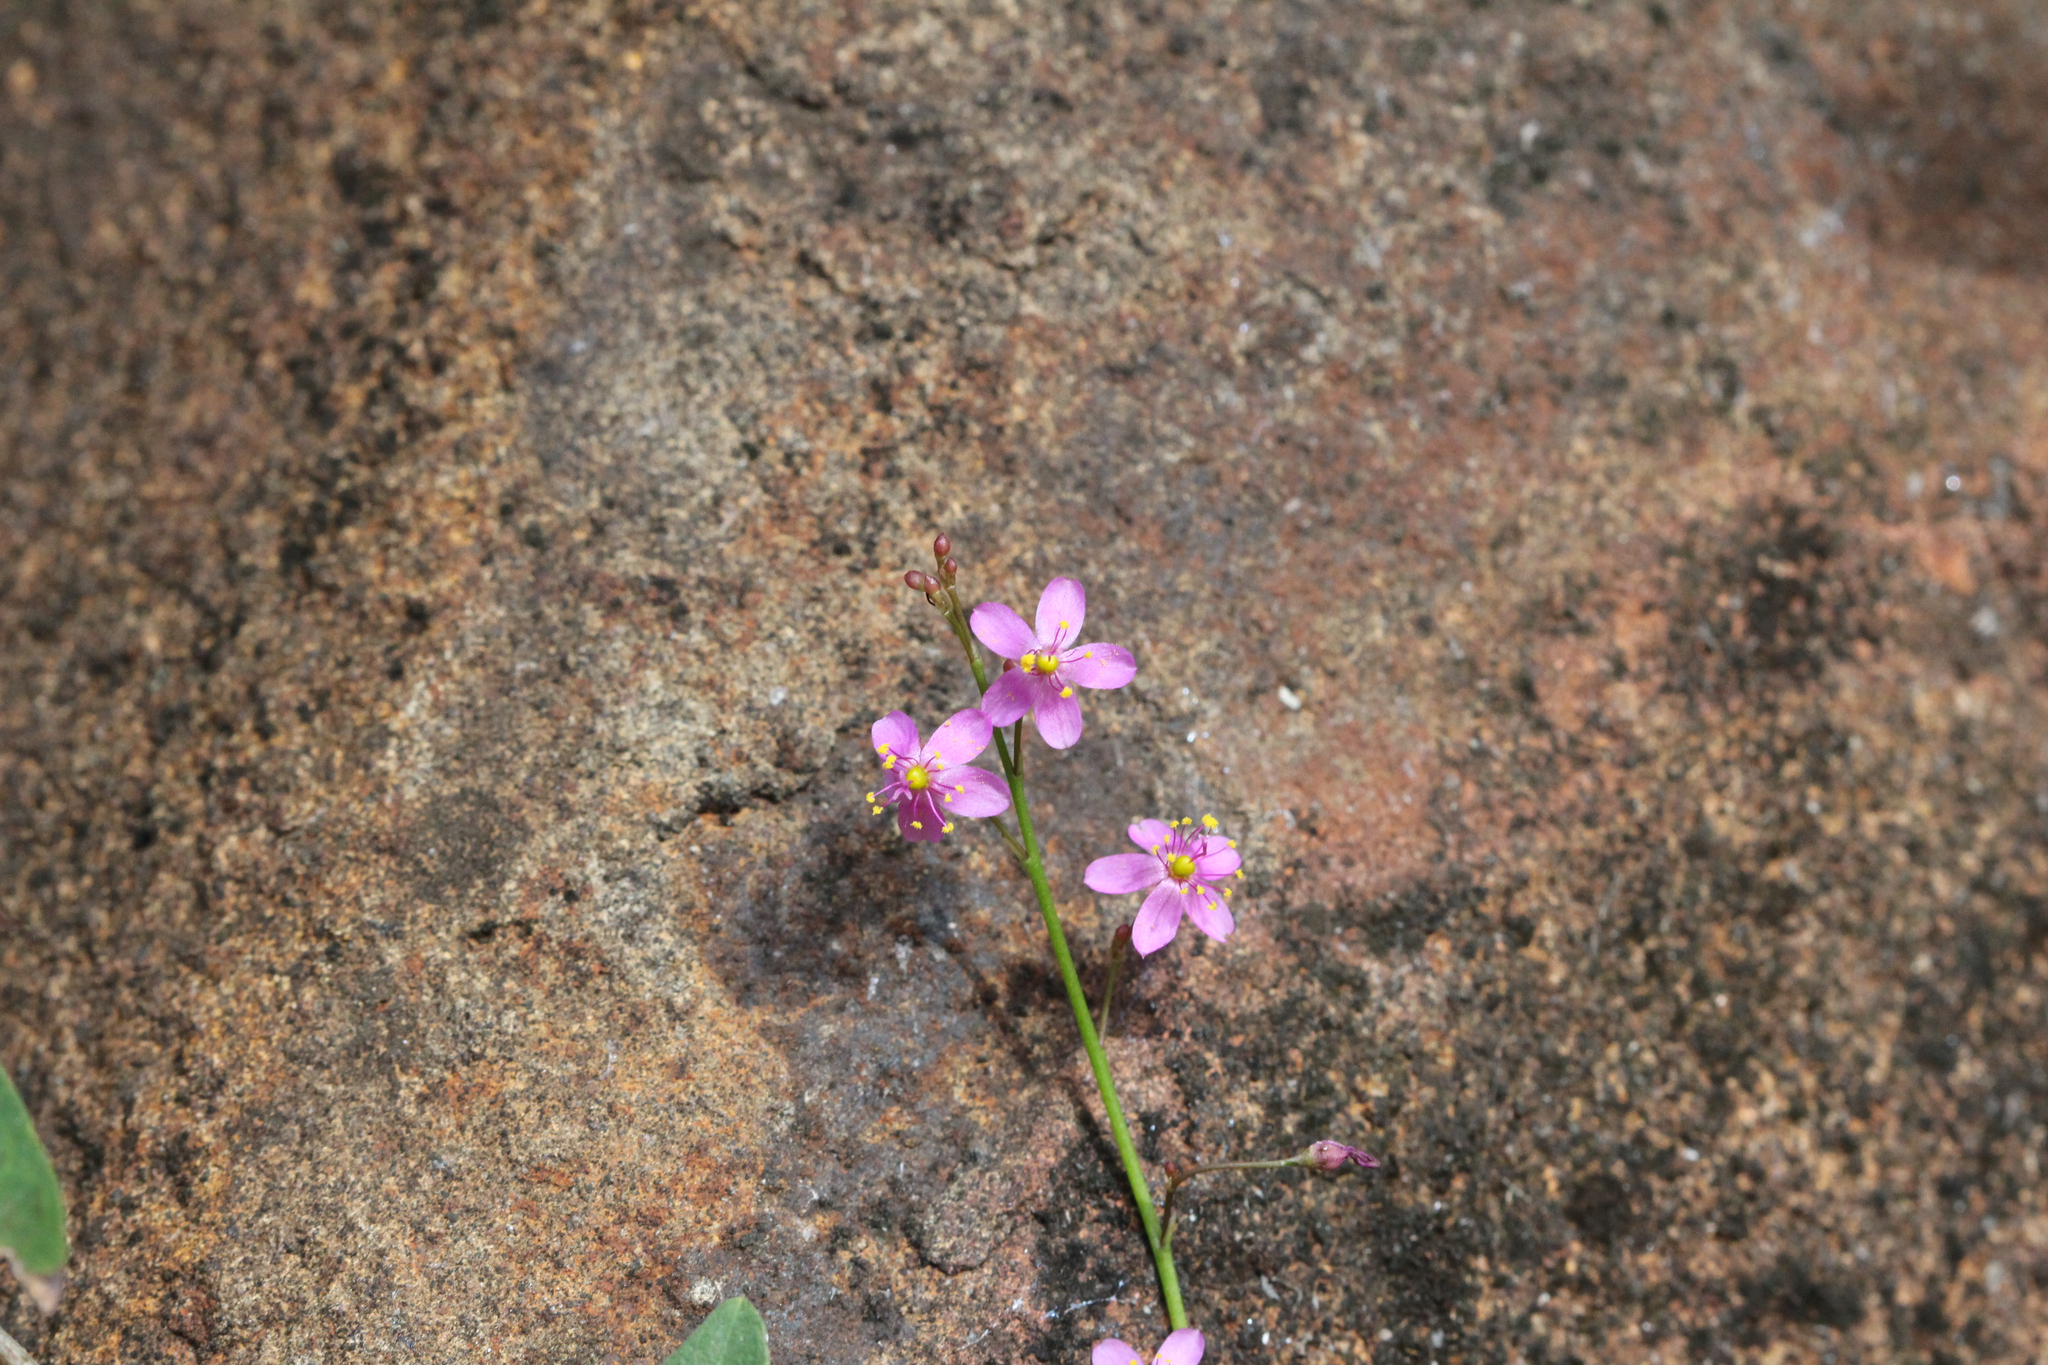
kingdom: Plantae
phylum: Tracheophyta
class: Magnoliopsida
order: Caryophyllales
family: Talinaceae
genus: Talinum
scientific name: Talinum paniculatum
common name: Jewels of opar
